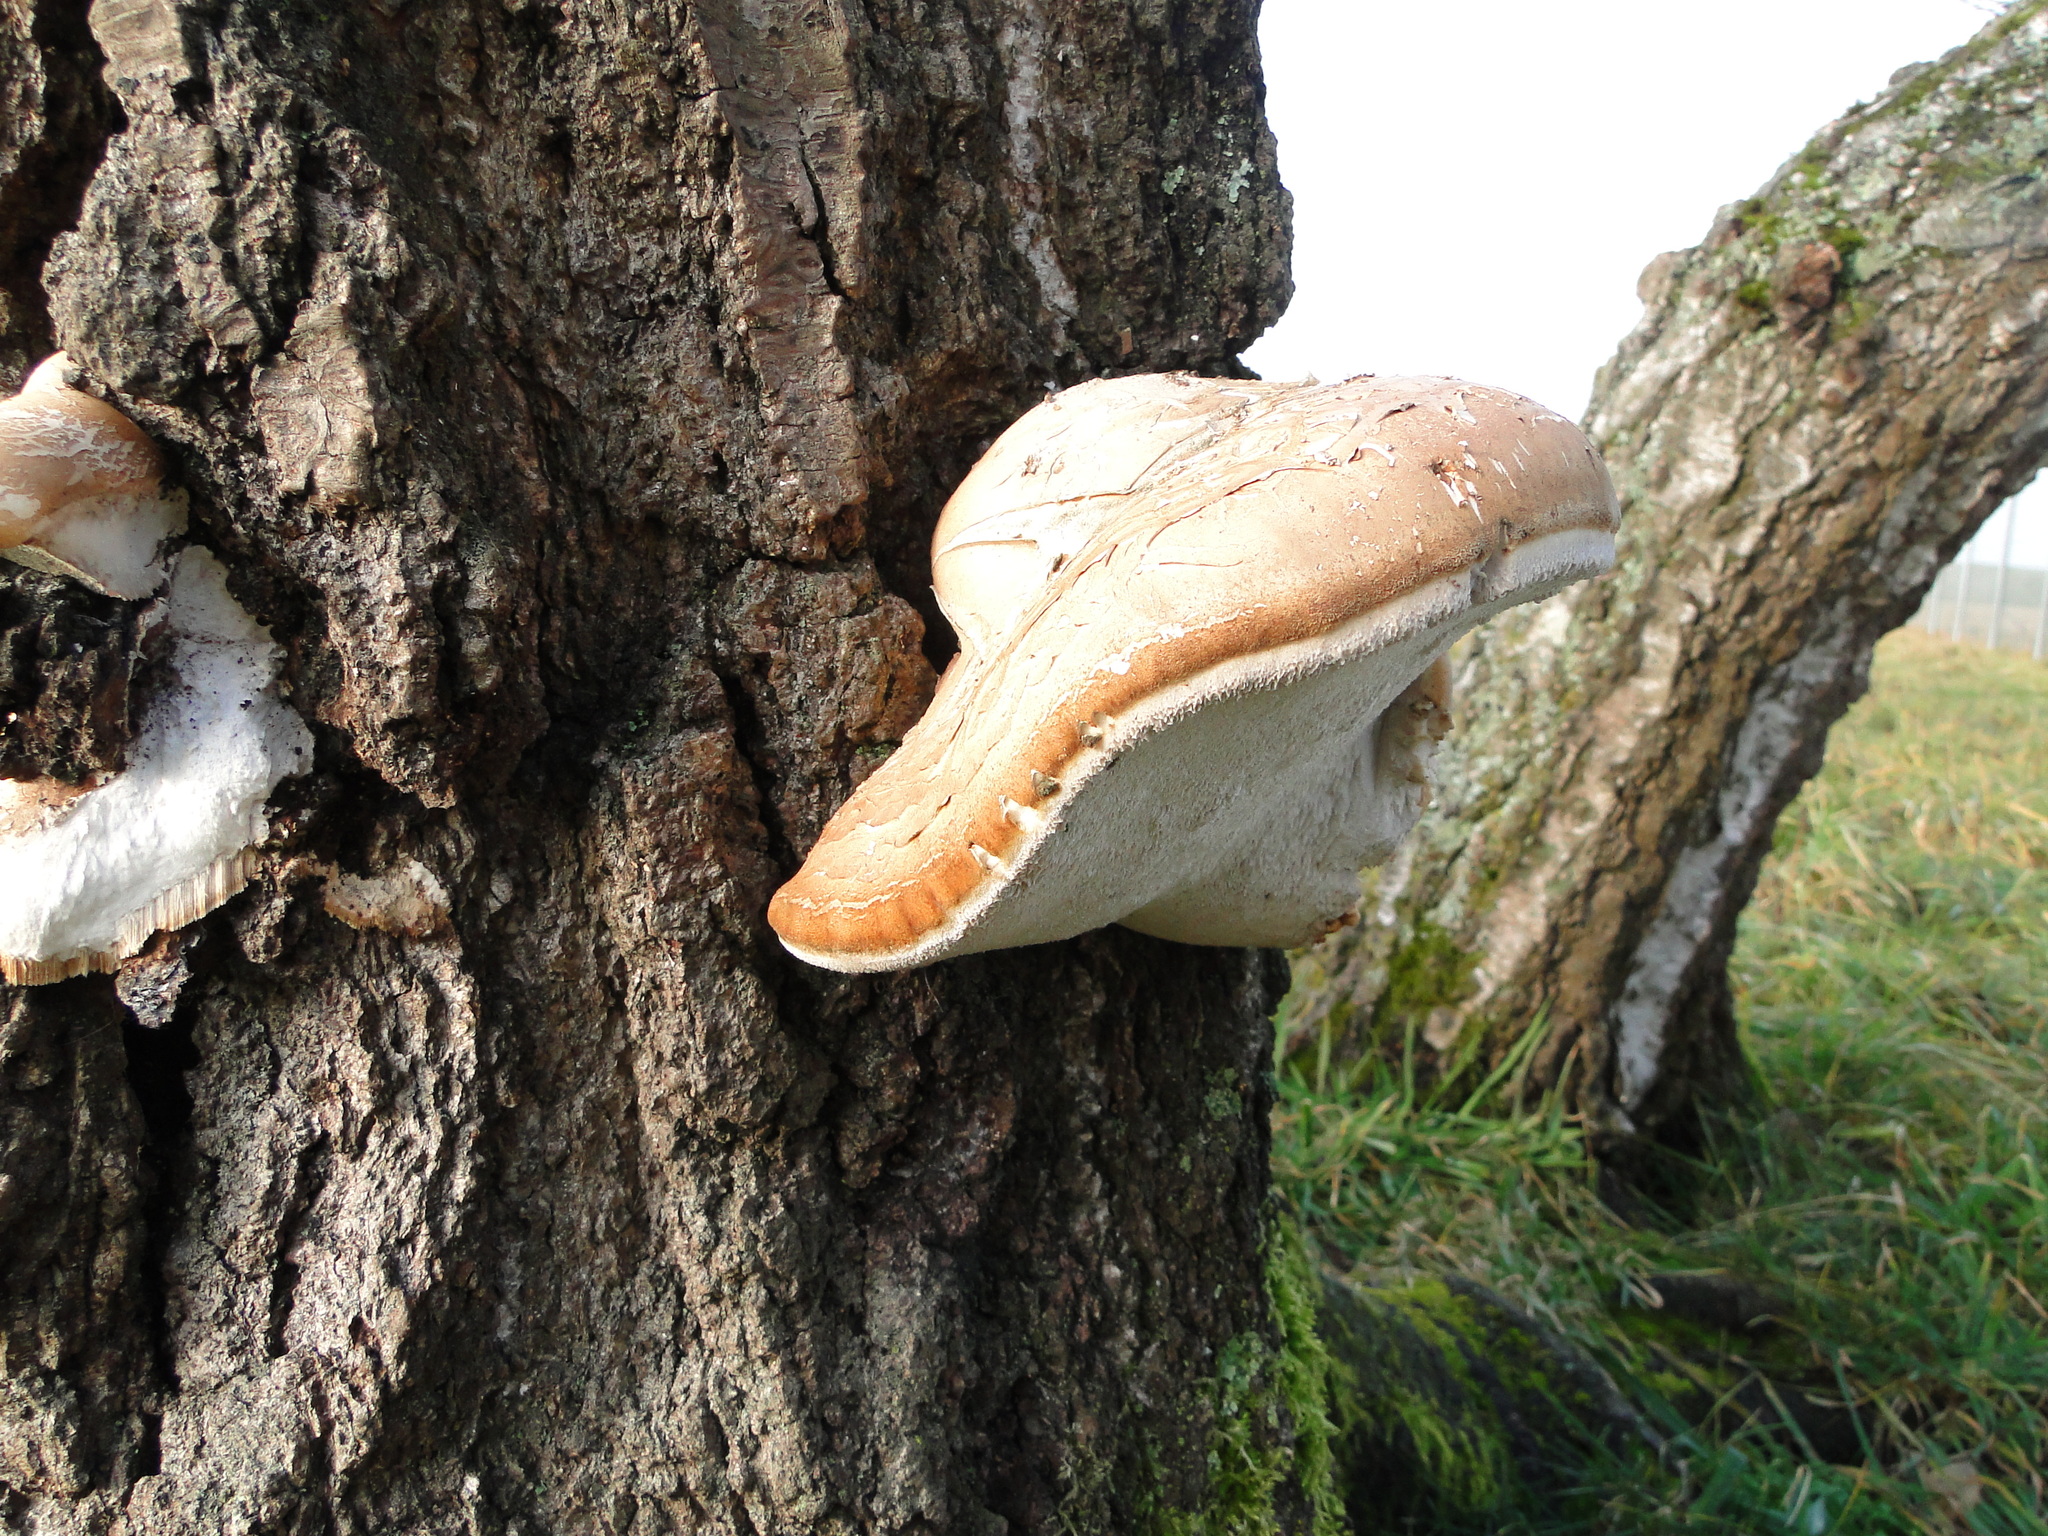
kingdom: Fungi
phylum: Basidiomycota
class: Agaricomycetes
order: Polyporales
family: Fomitopsidaceae
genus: Fomitopsis
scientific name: Fomitopsis betulina
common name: Birch polypore
